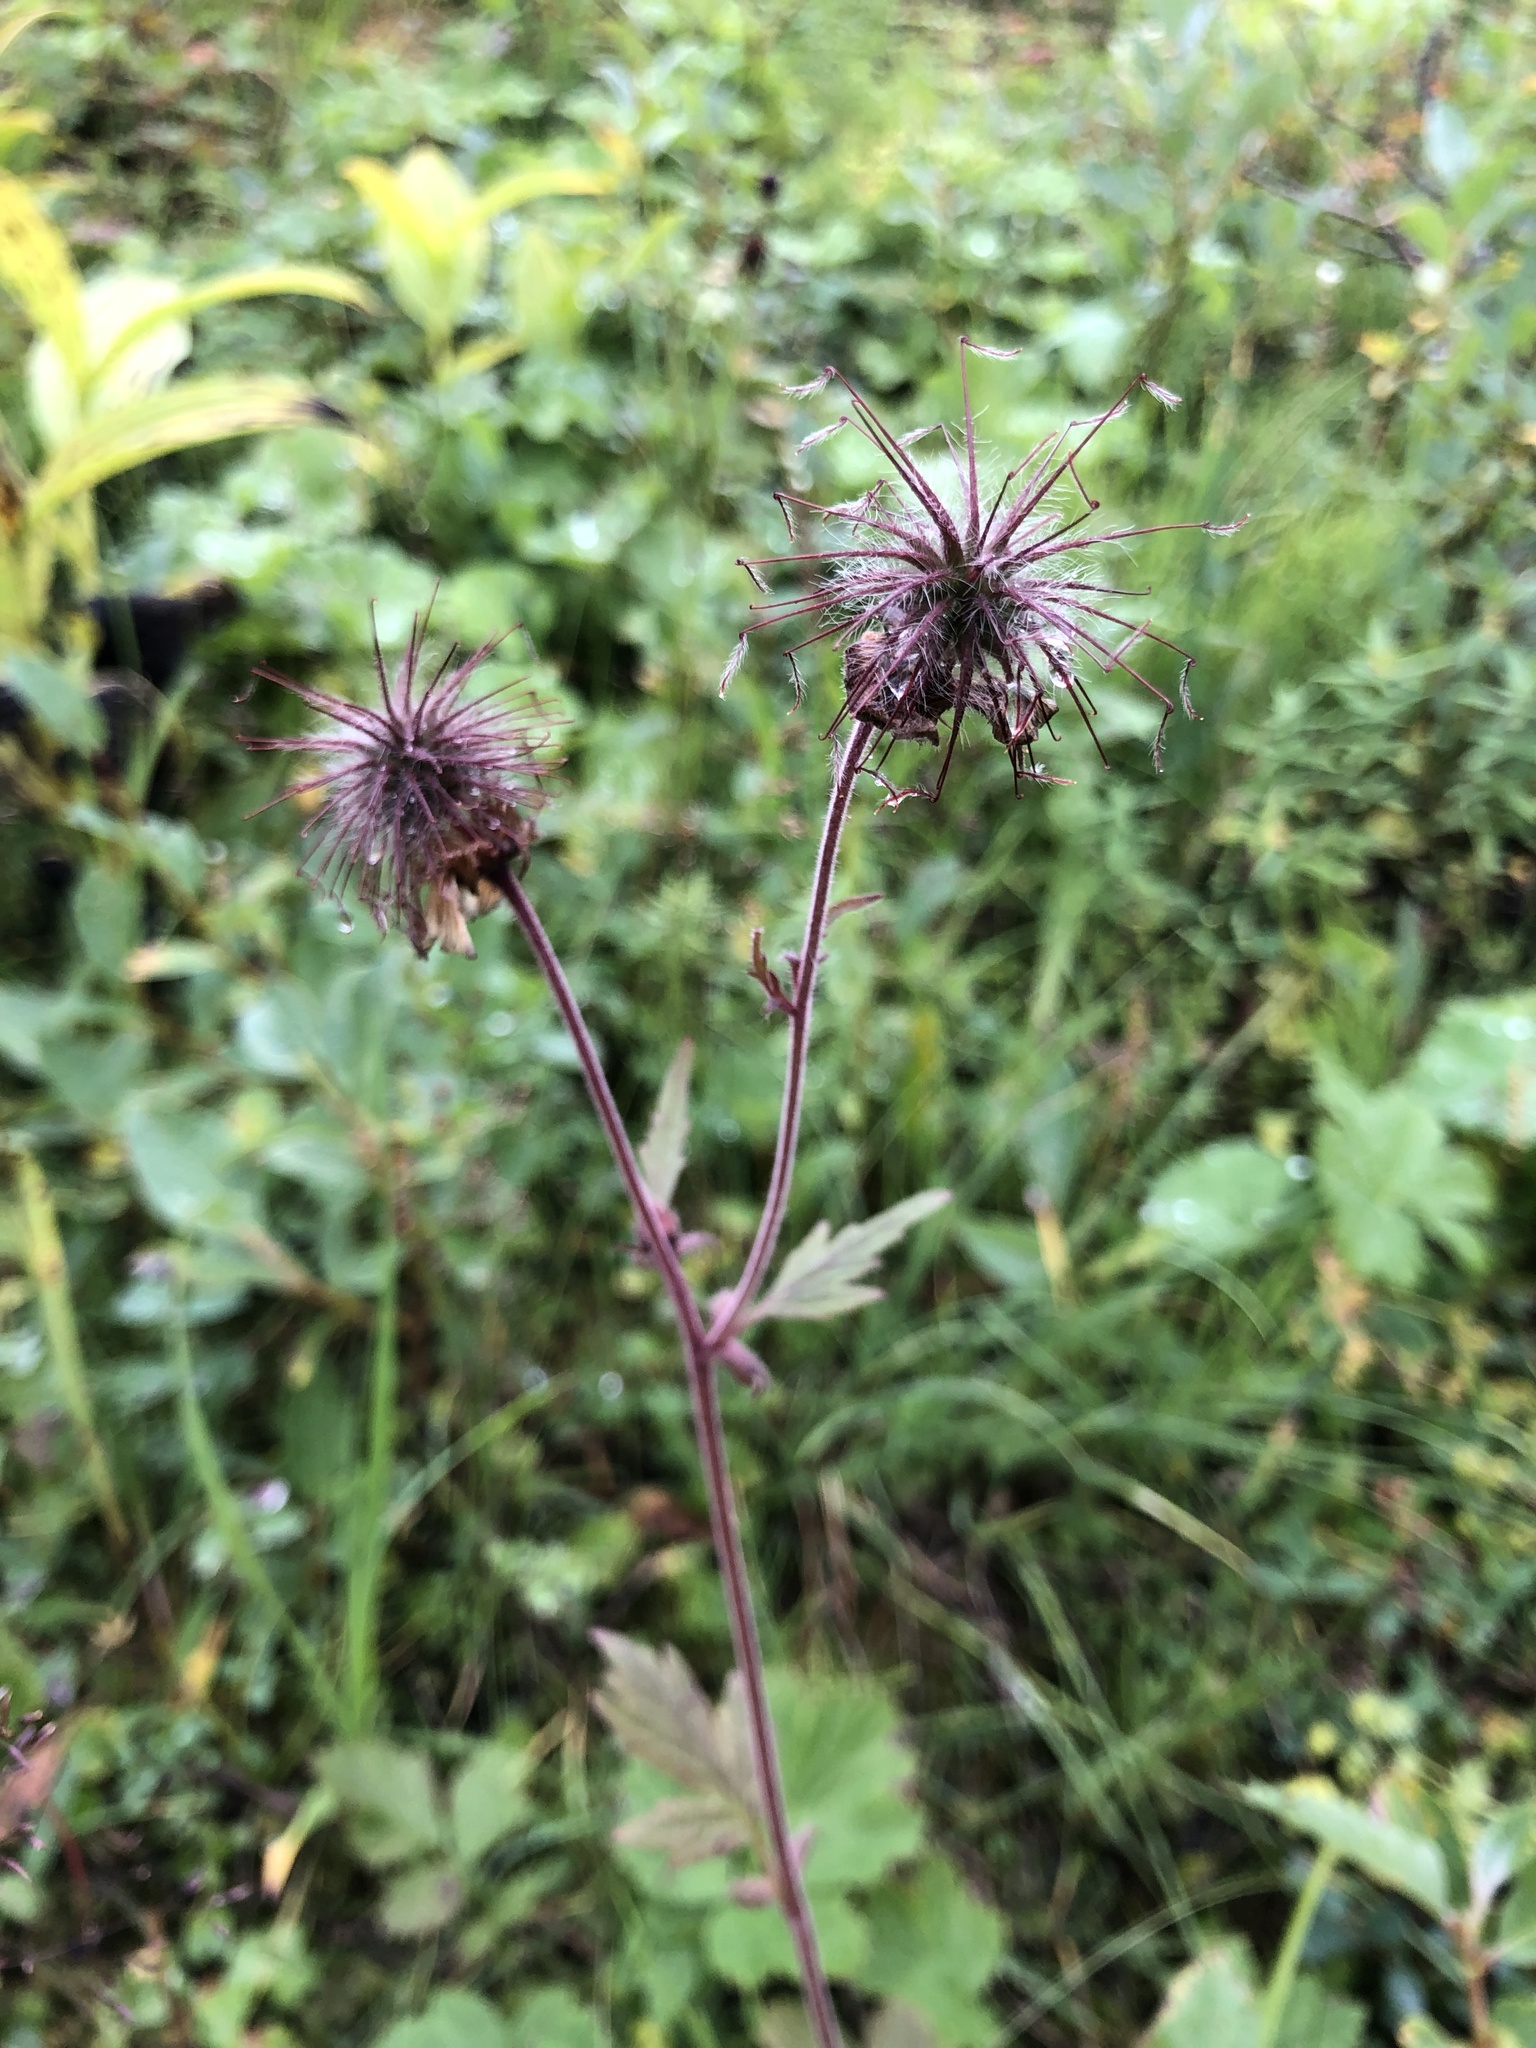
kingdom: Plantae
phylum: Tracheophyta
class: Magnoliopsida
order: Rosales
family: Rosaceae
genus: Geum
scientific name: Geum rivale
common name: Water avens
